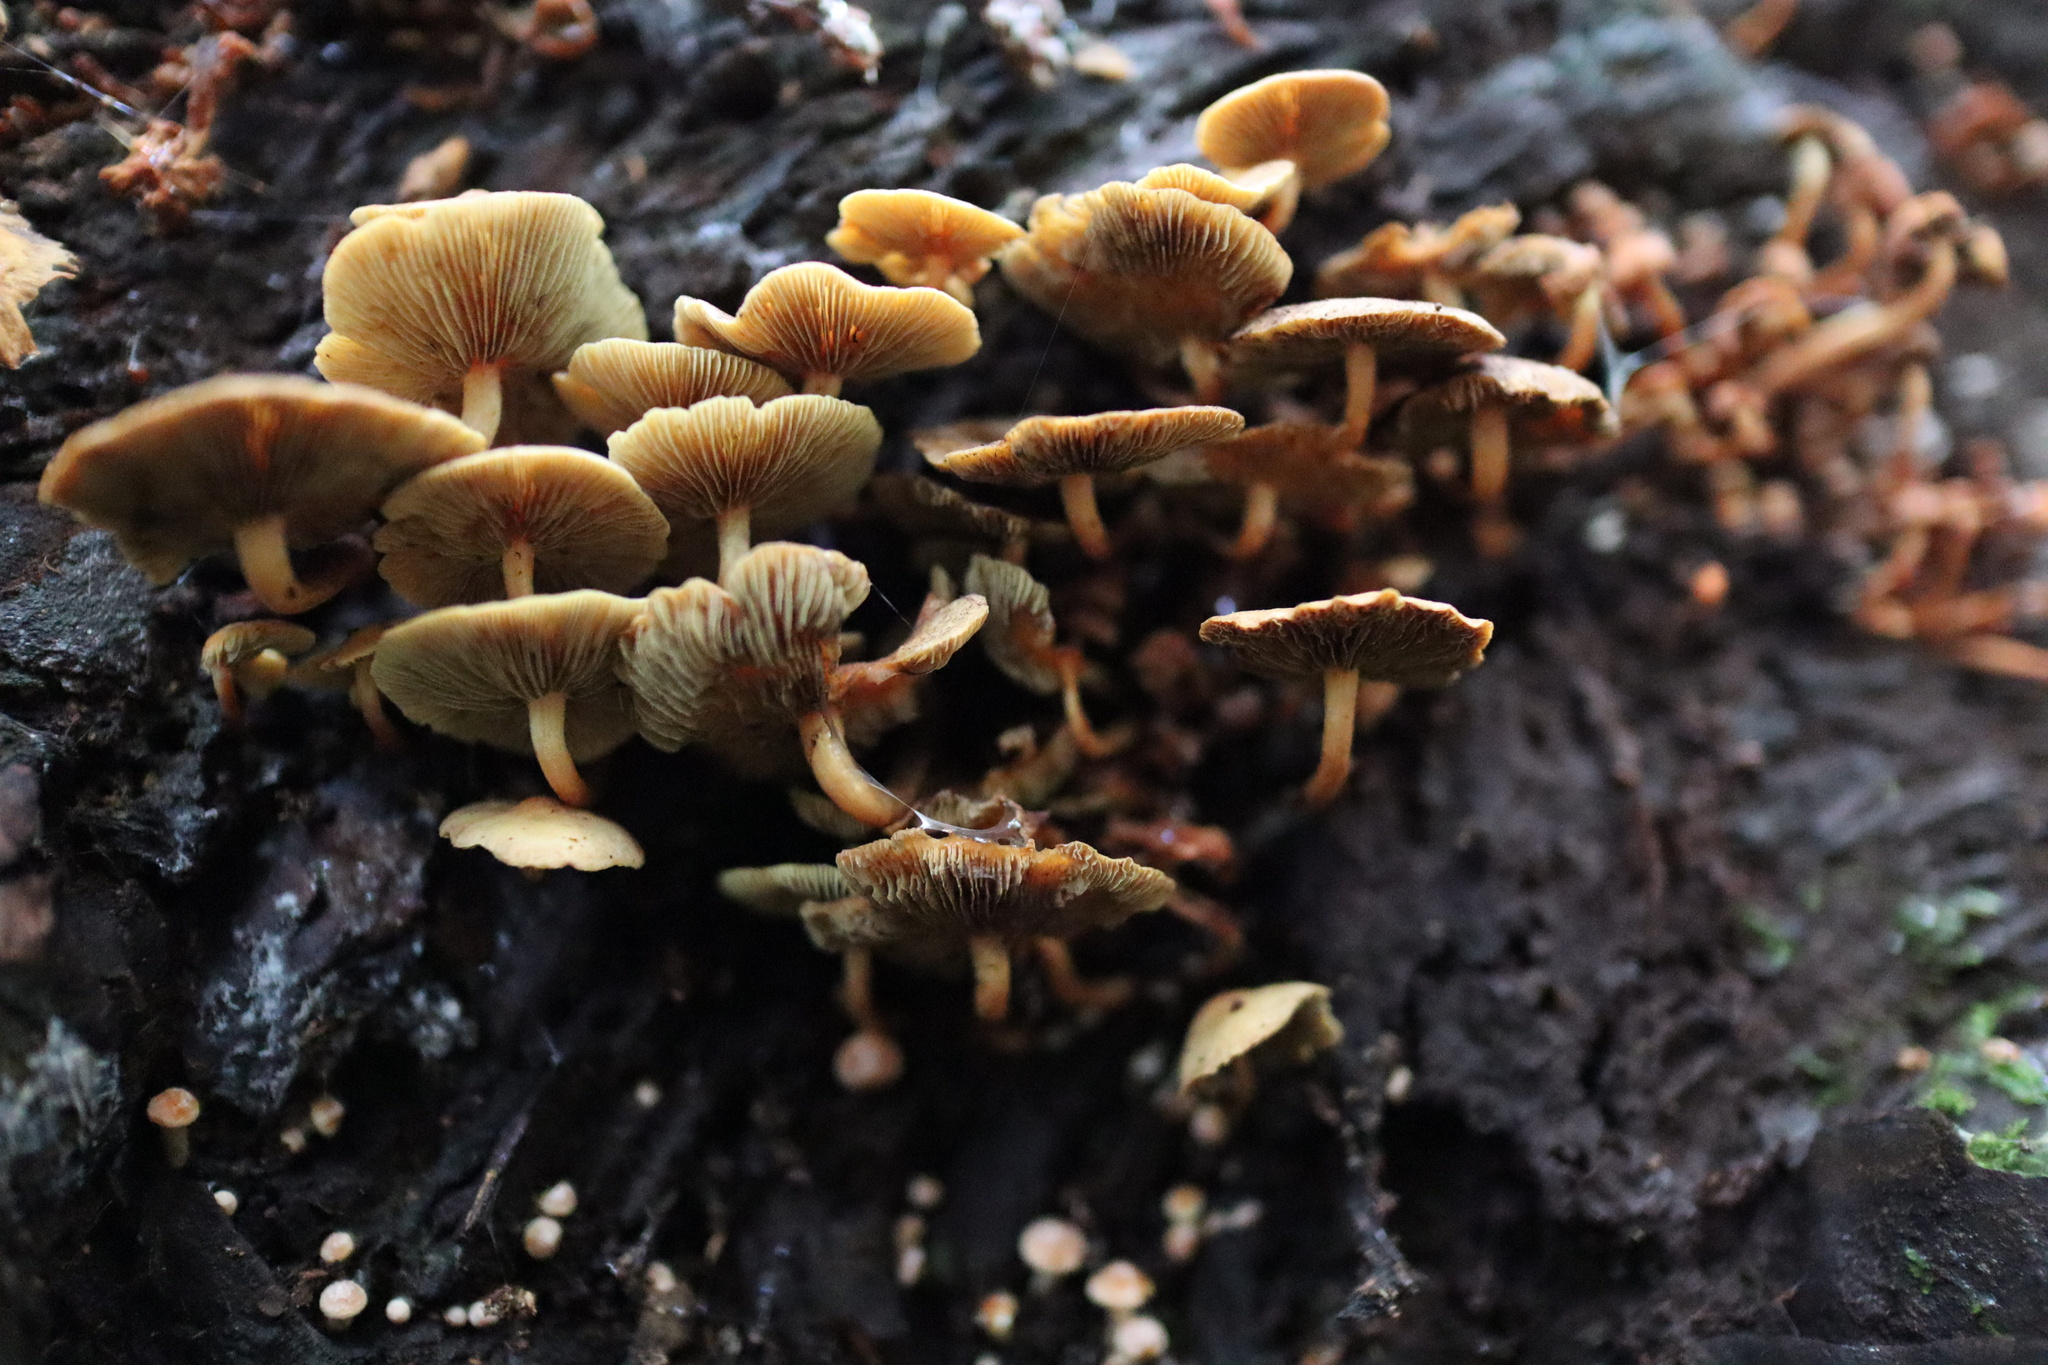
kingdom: Fungi
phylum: Basidiomycota
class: Agaricomycetes
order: Agaricales
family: Strophariaceae
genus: Hypholoma
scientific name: Hypholoma acutum
